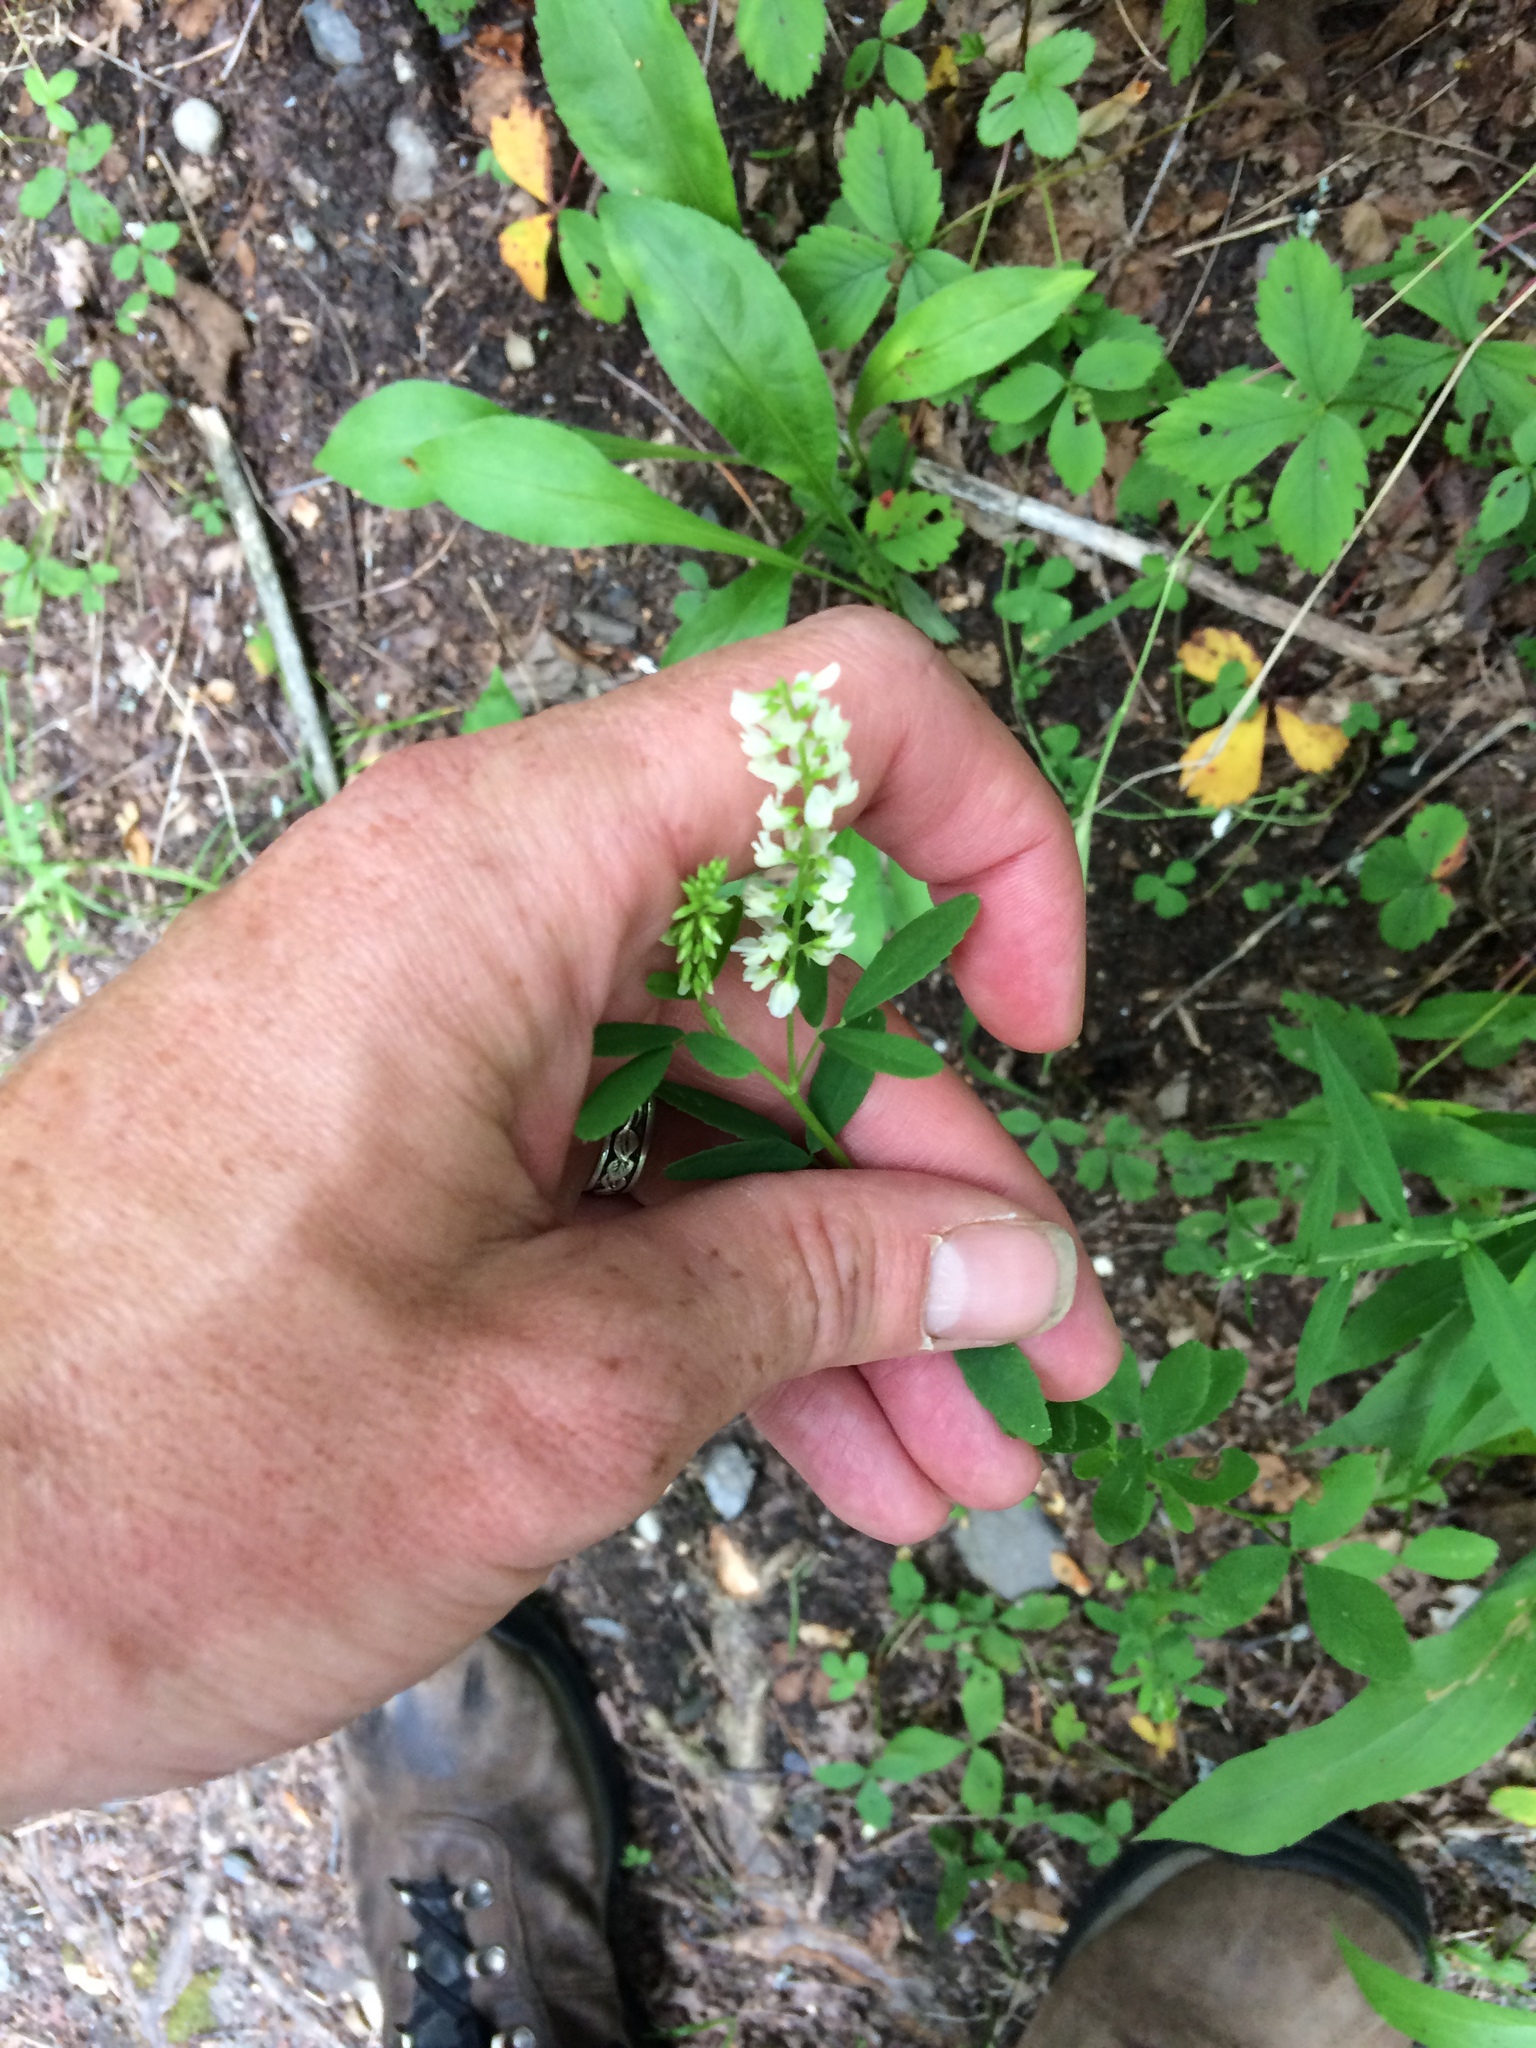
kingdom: Plantae
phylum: Tracheophyta
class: Magnoliopsida
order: Fabales
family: Fabaceae
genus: Melilotus
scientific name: Melilotus albus
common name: White melilot
